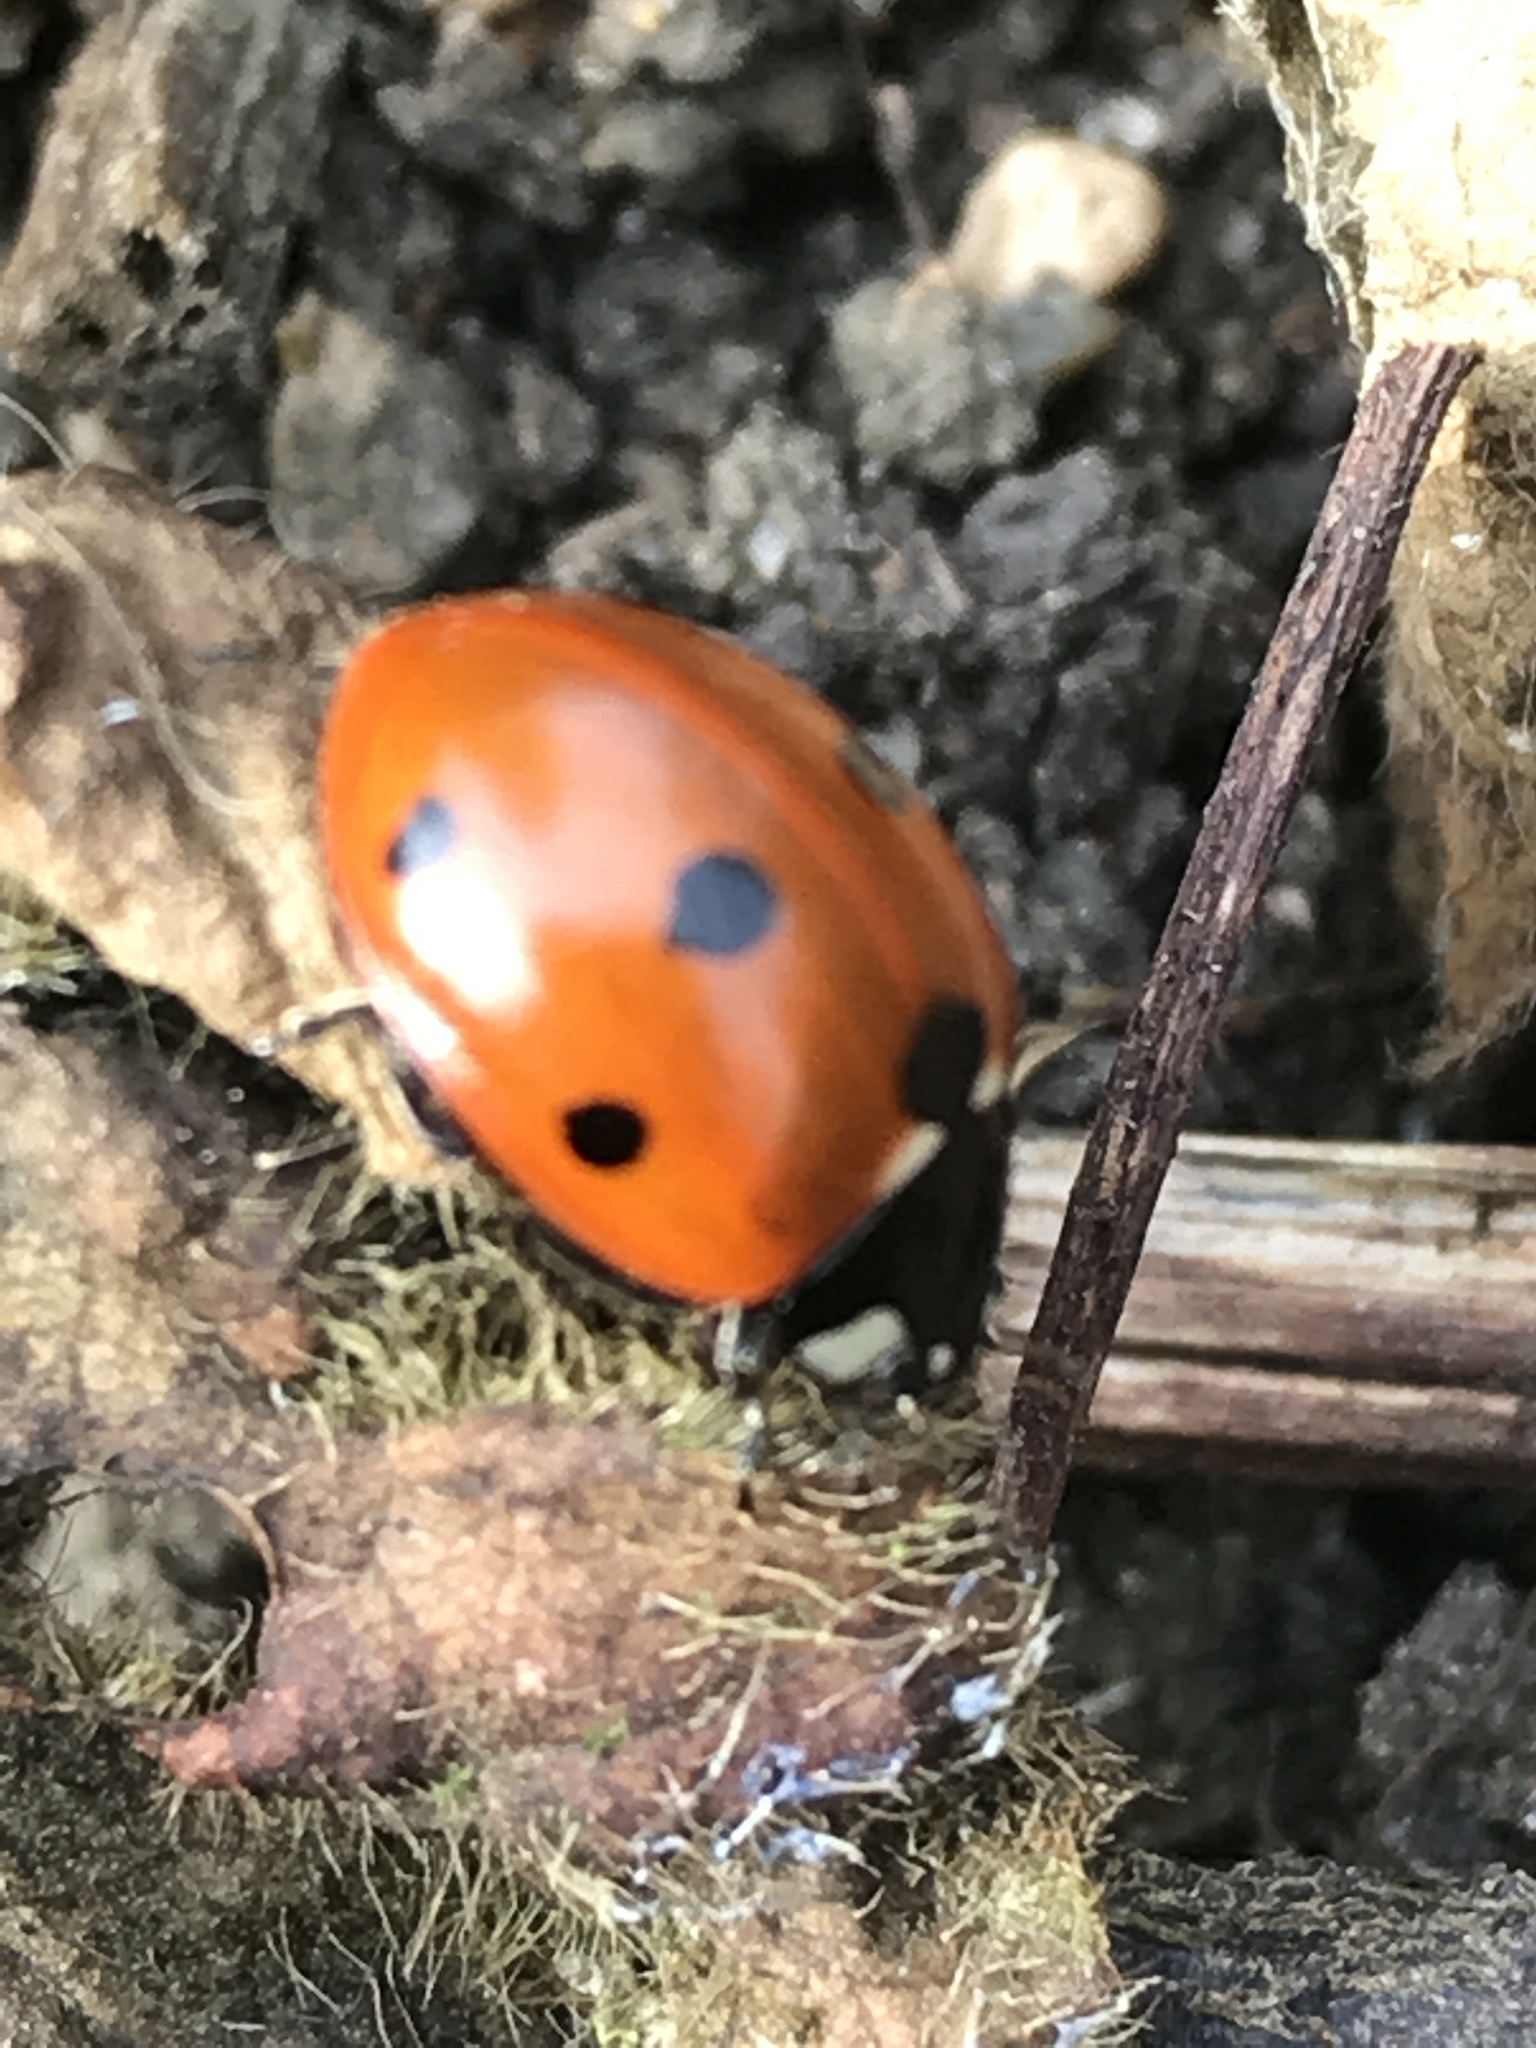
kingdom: Animalia
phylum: Arthropoda
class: Insecta
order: Coleoptera
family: Coccinellidae
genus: Coccinella
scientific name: Coccinella septempunctata
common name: Sevenspotted lady beetle
